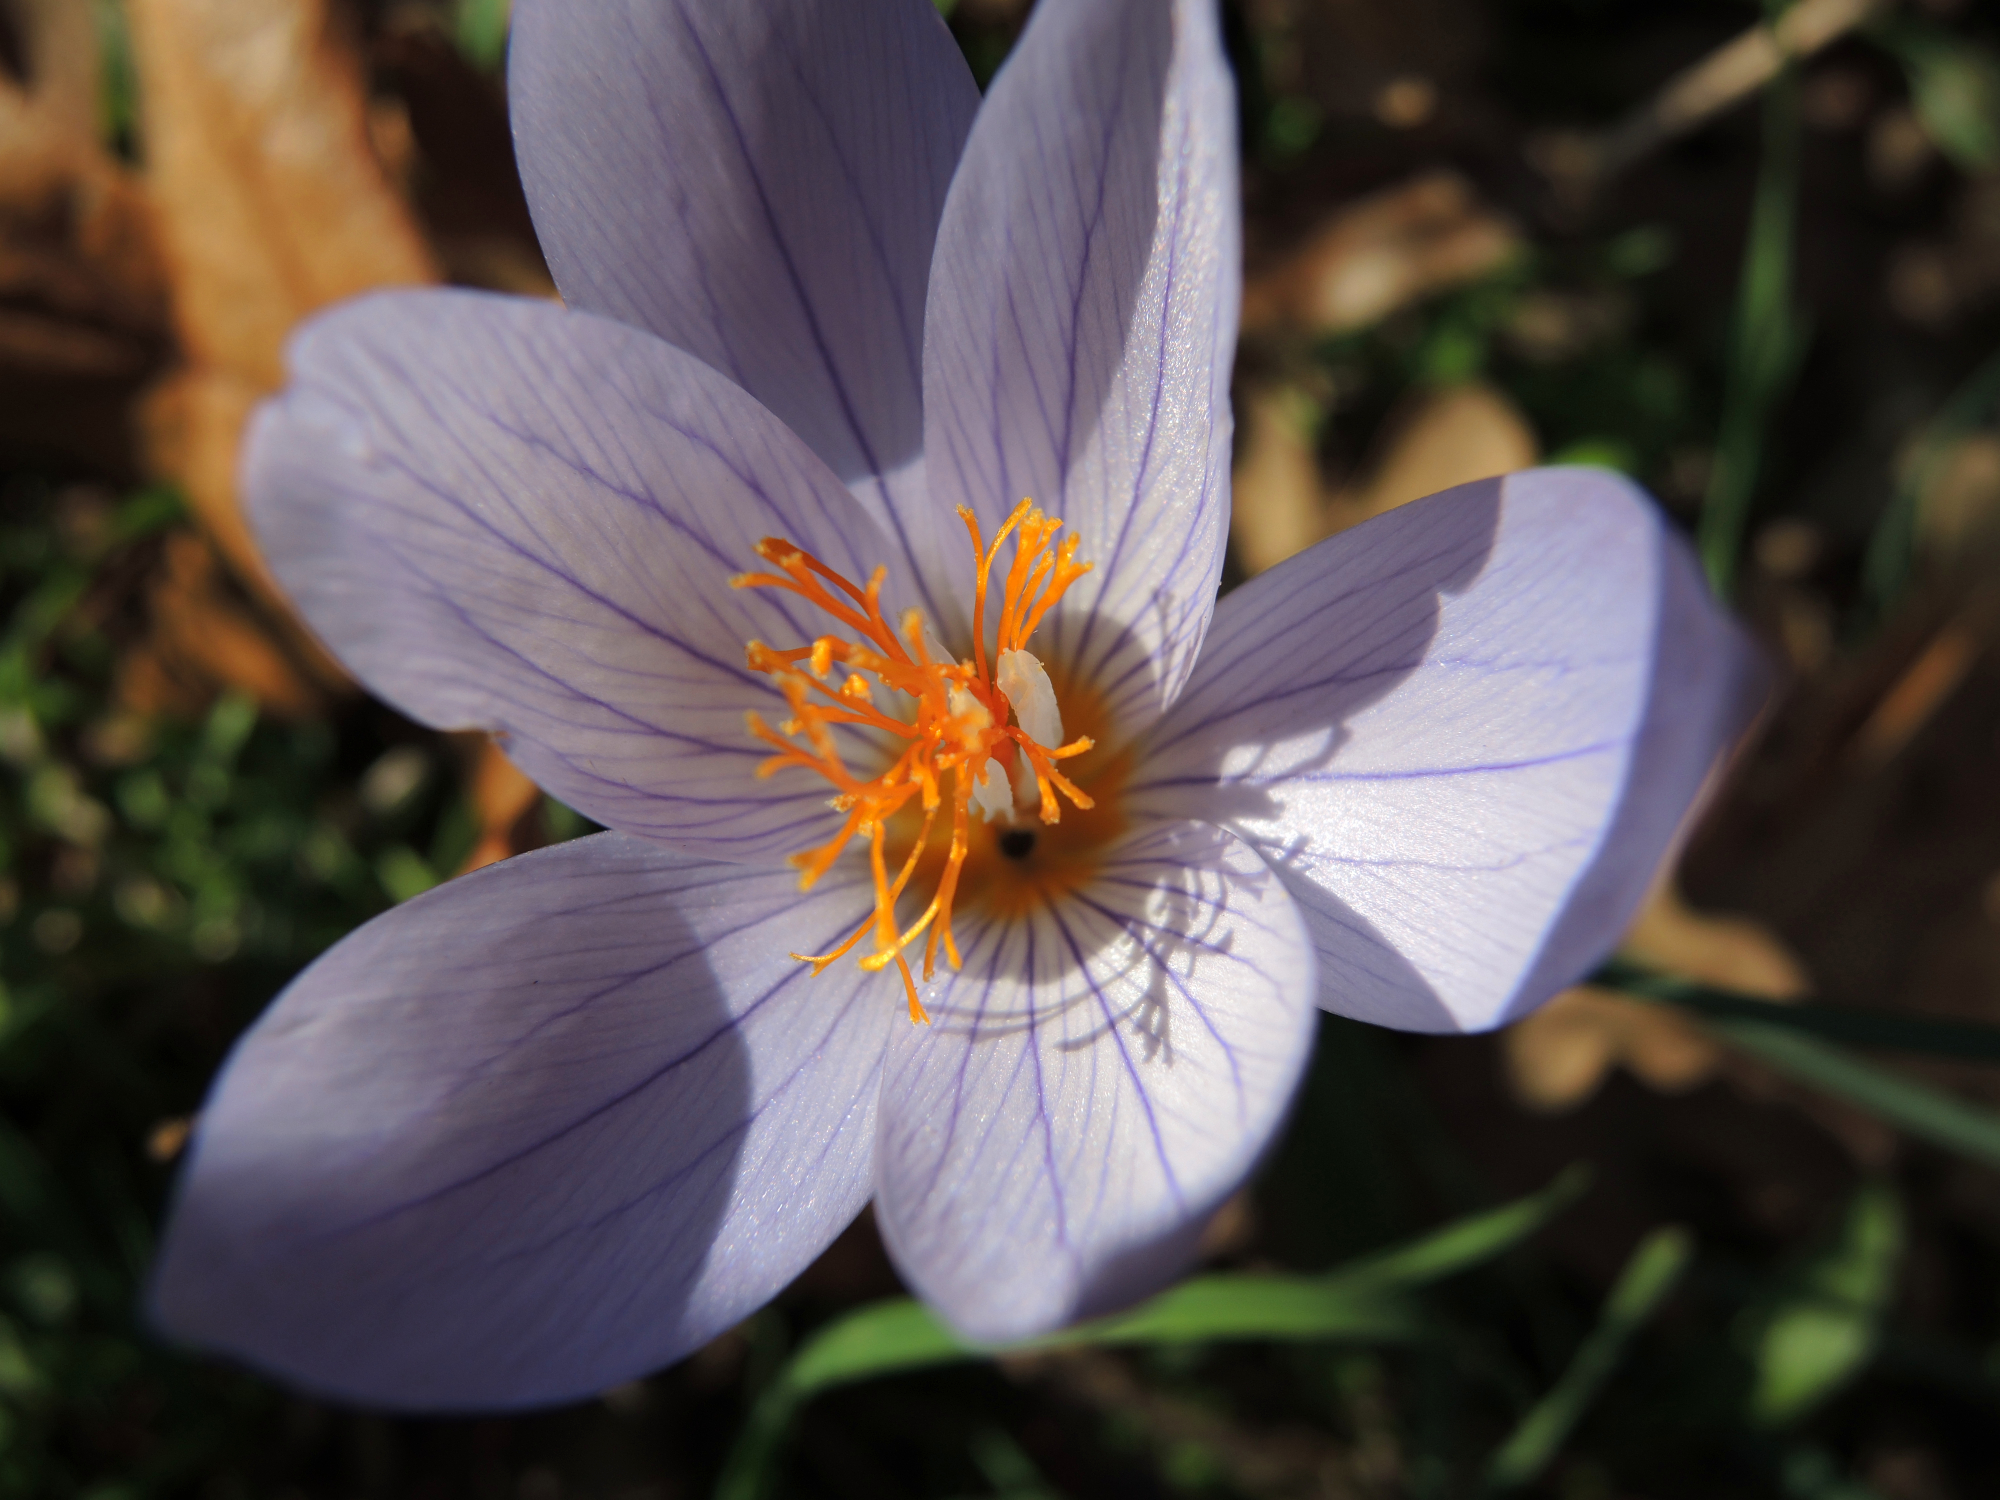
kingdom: Plantae
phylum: Tracheophyta
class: Liliopsida
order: Asparagales
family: Iridaceae
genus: Crocus
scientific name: Crocus ibrahimii
